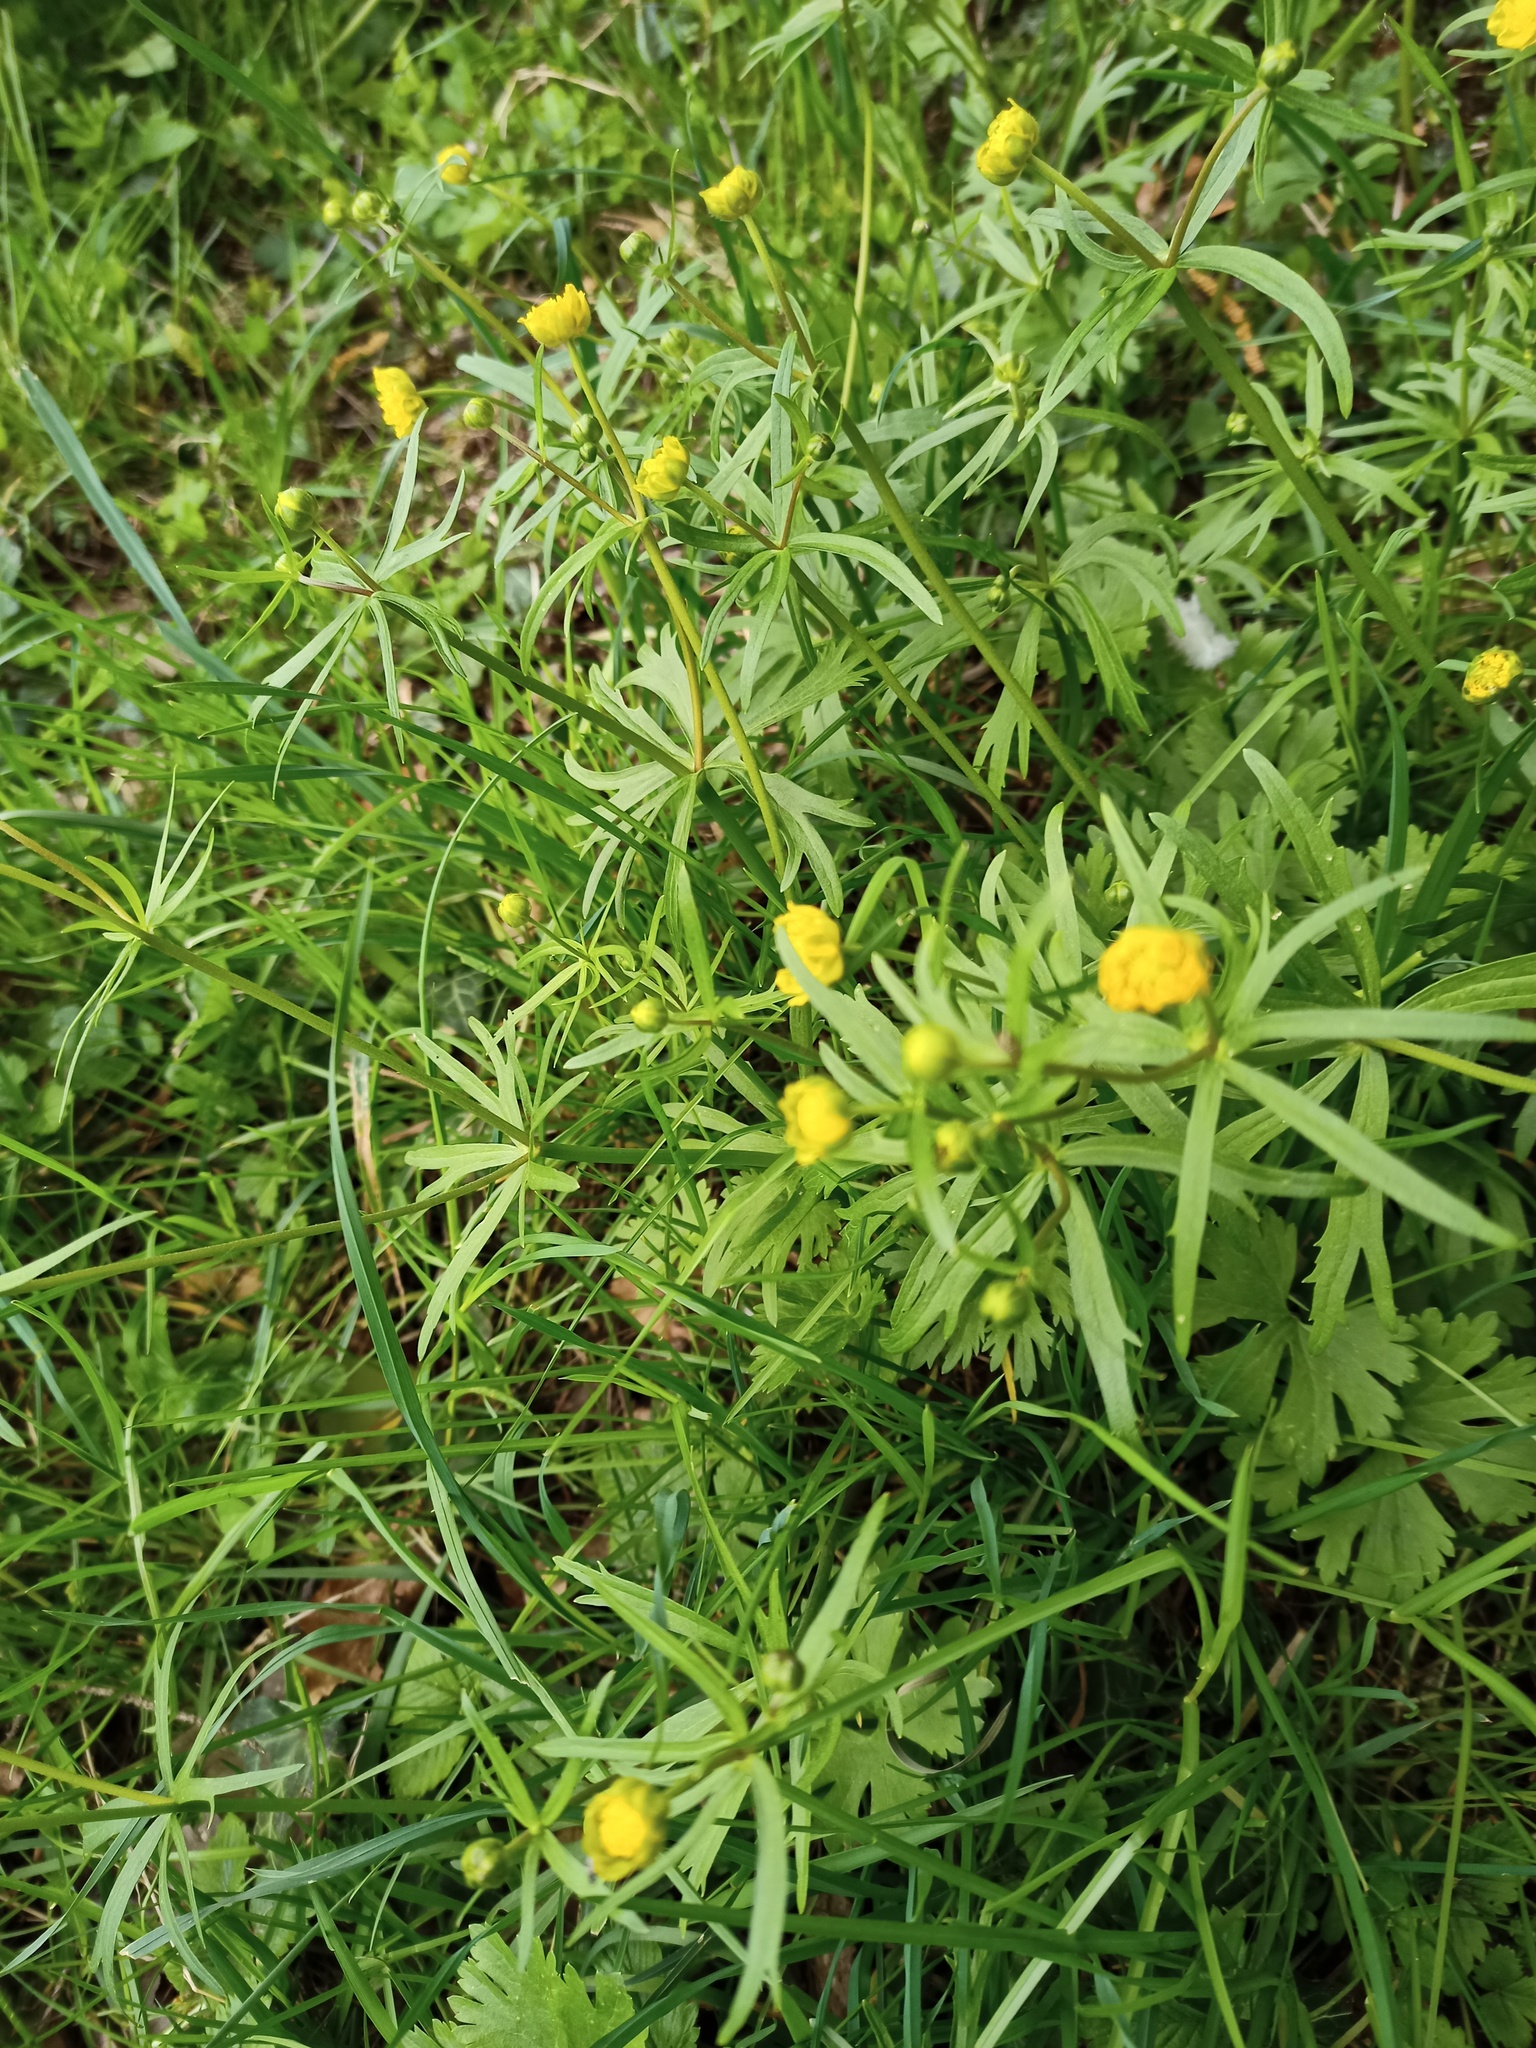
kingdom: Plantae
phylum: Tracheophyta
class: Magnoliopsida
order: Ranunculales
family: Ranunculaceae
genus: Ranunculus
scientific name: Ranunculus auricomus
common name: Goldilocks buttercup
